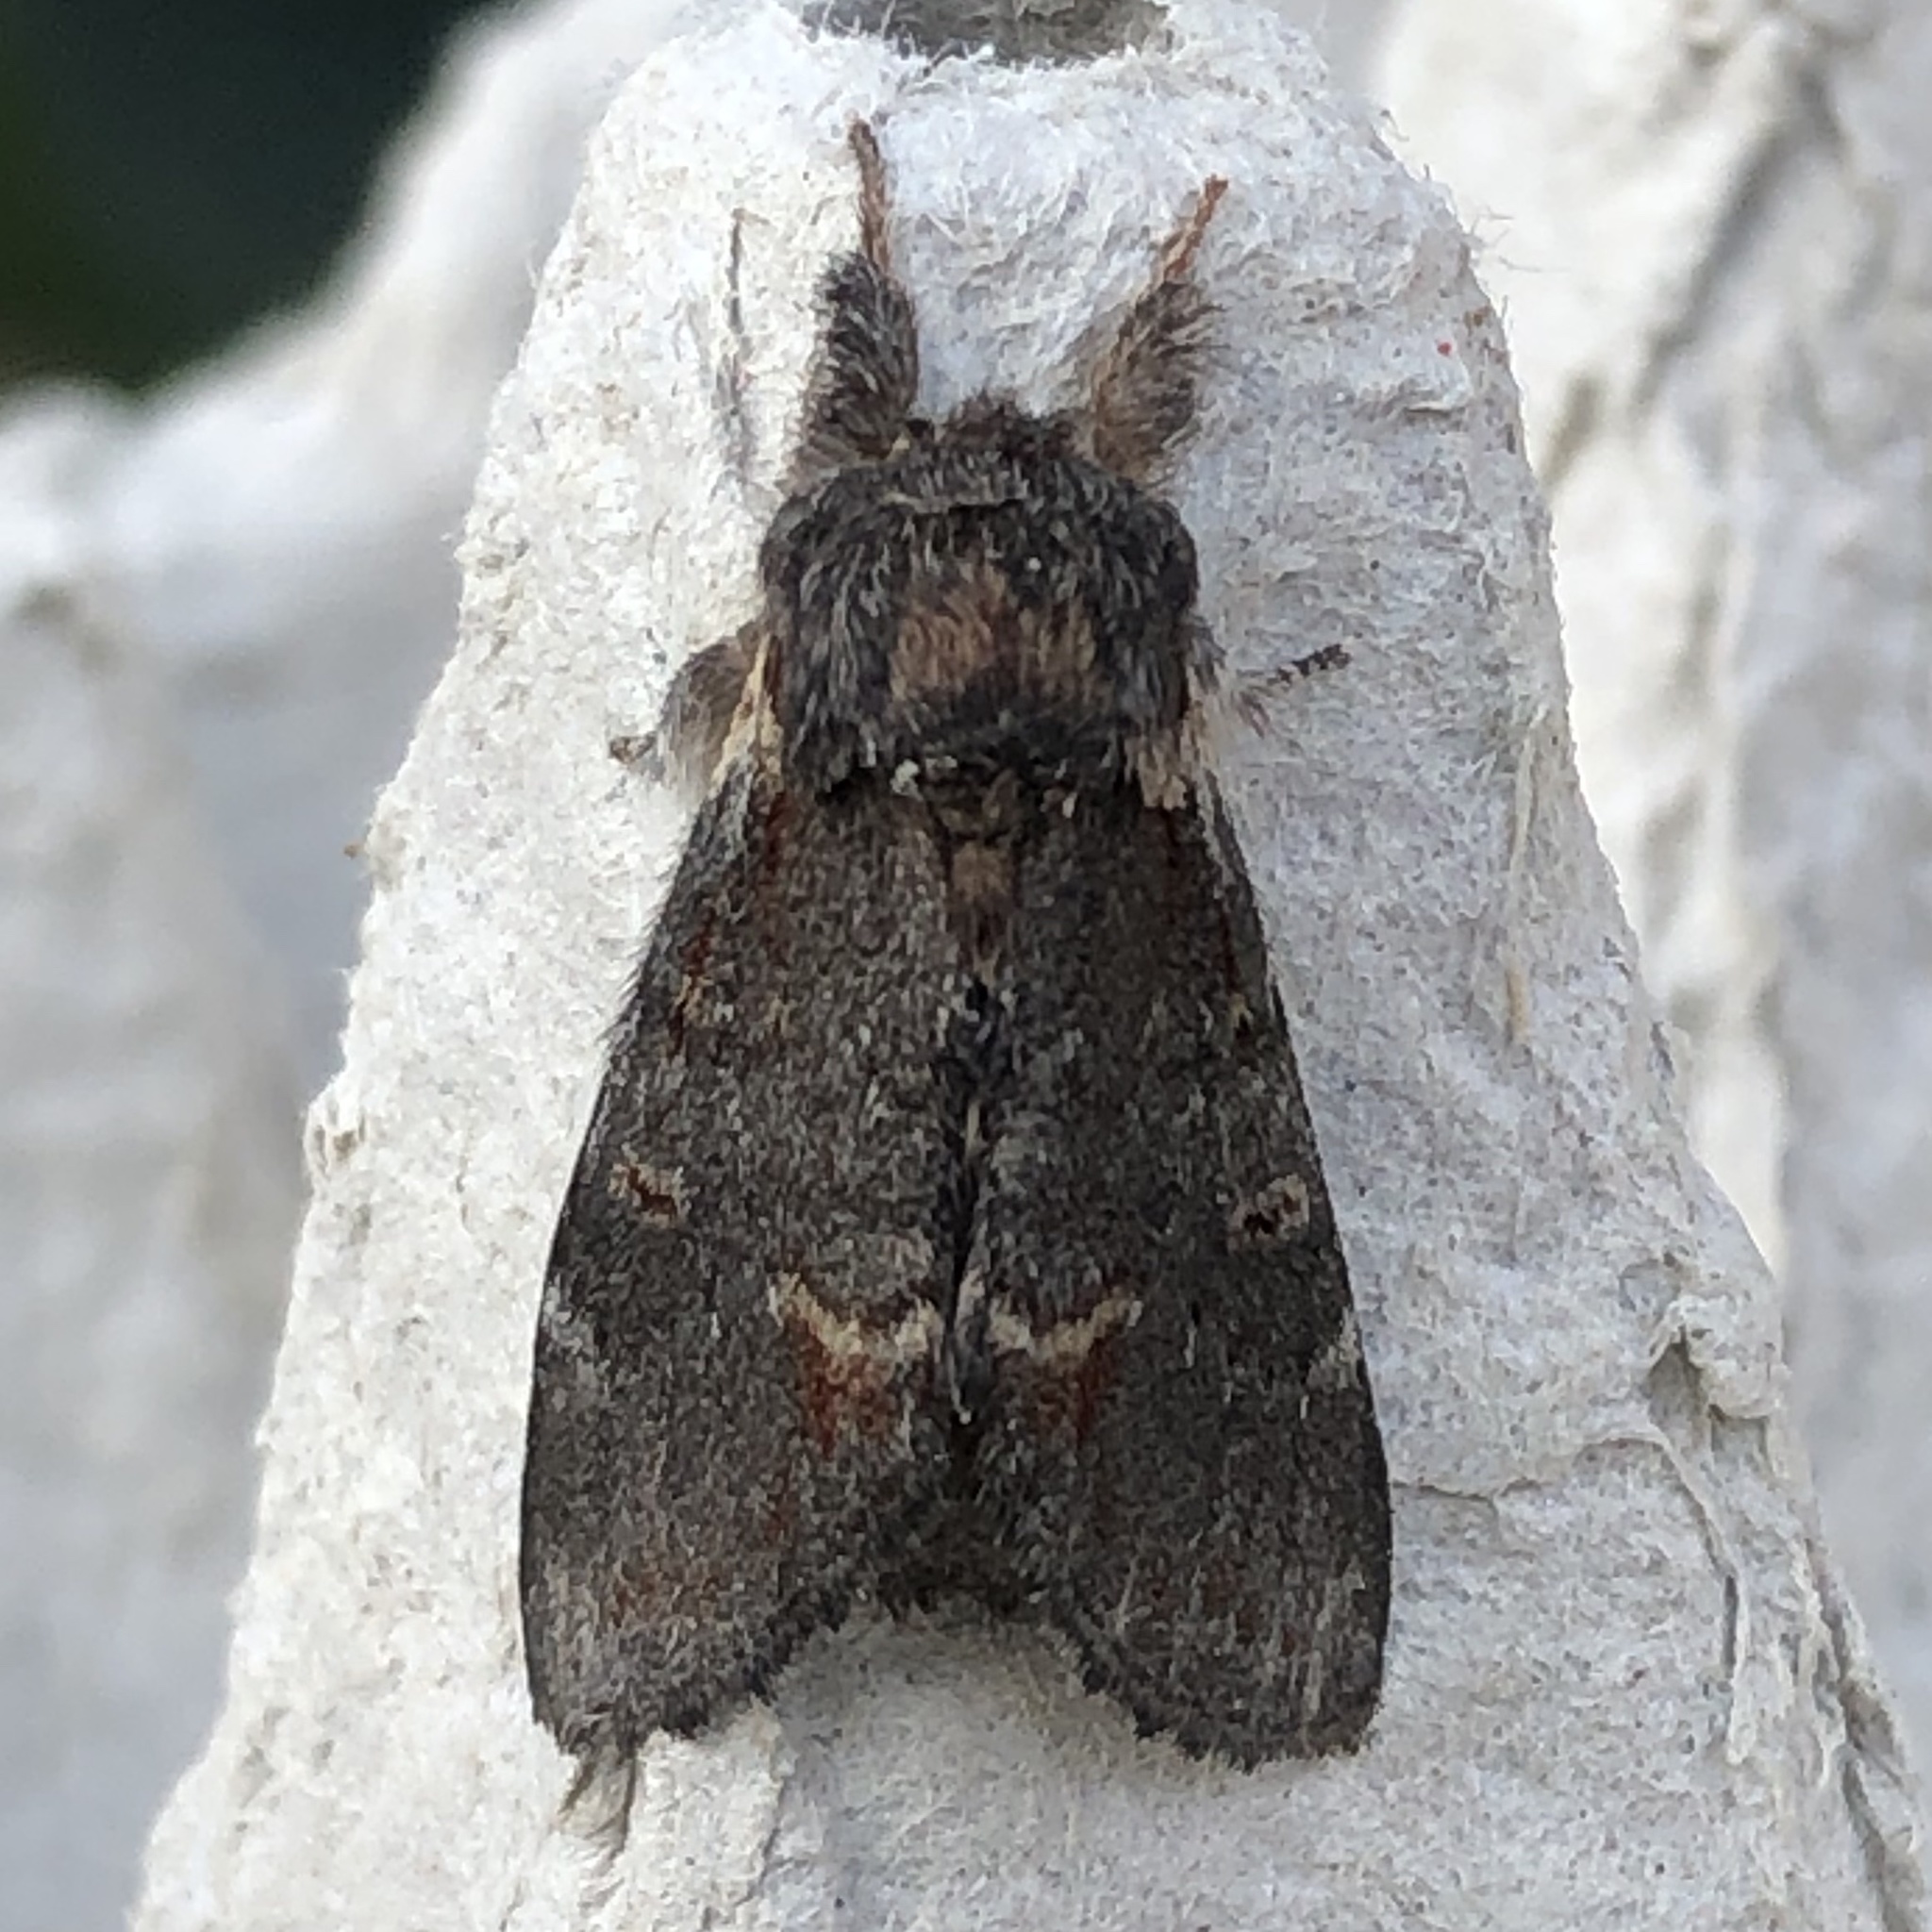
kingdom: Animalia
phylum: Arthropoda
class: Insecta
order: Lepidoptera
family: Notodontidae
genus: Notodonta
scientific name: Notodonta dromedarius
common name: Iron prominent
